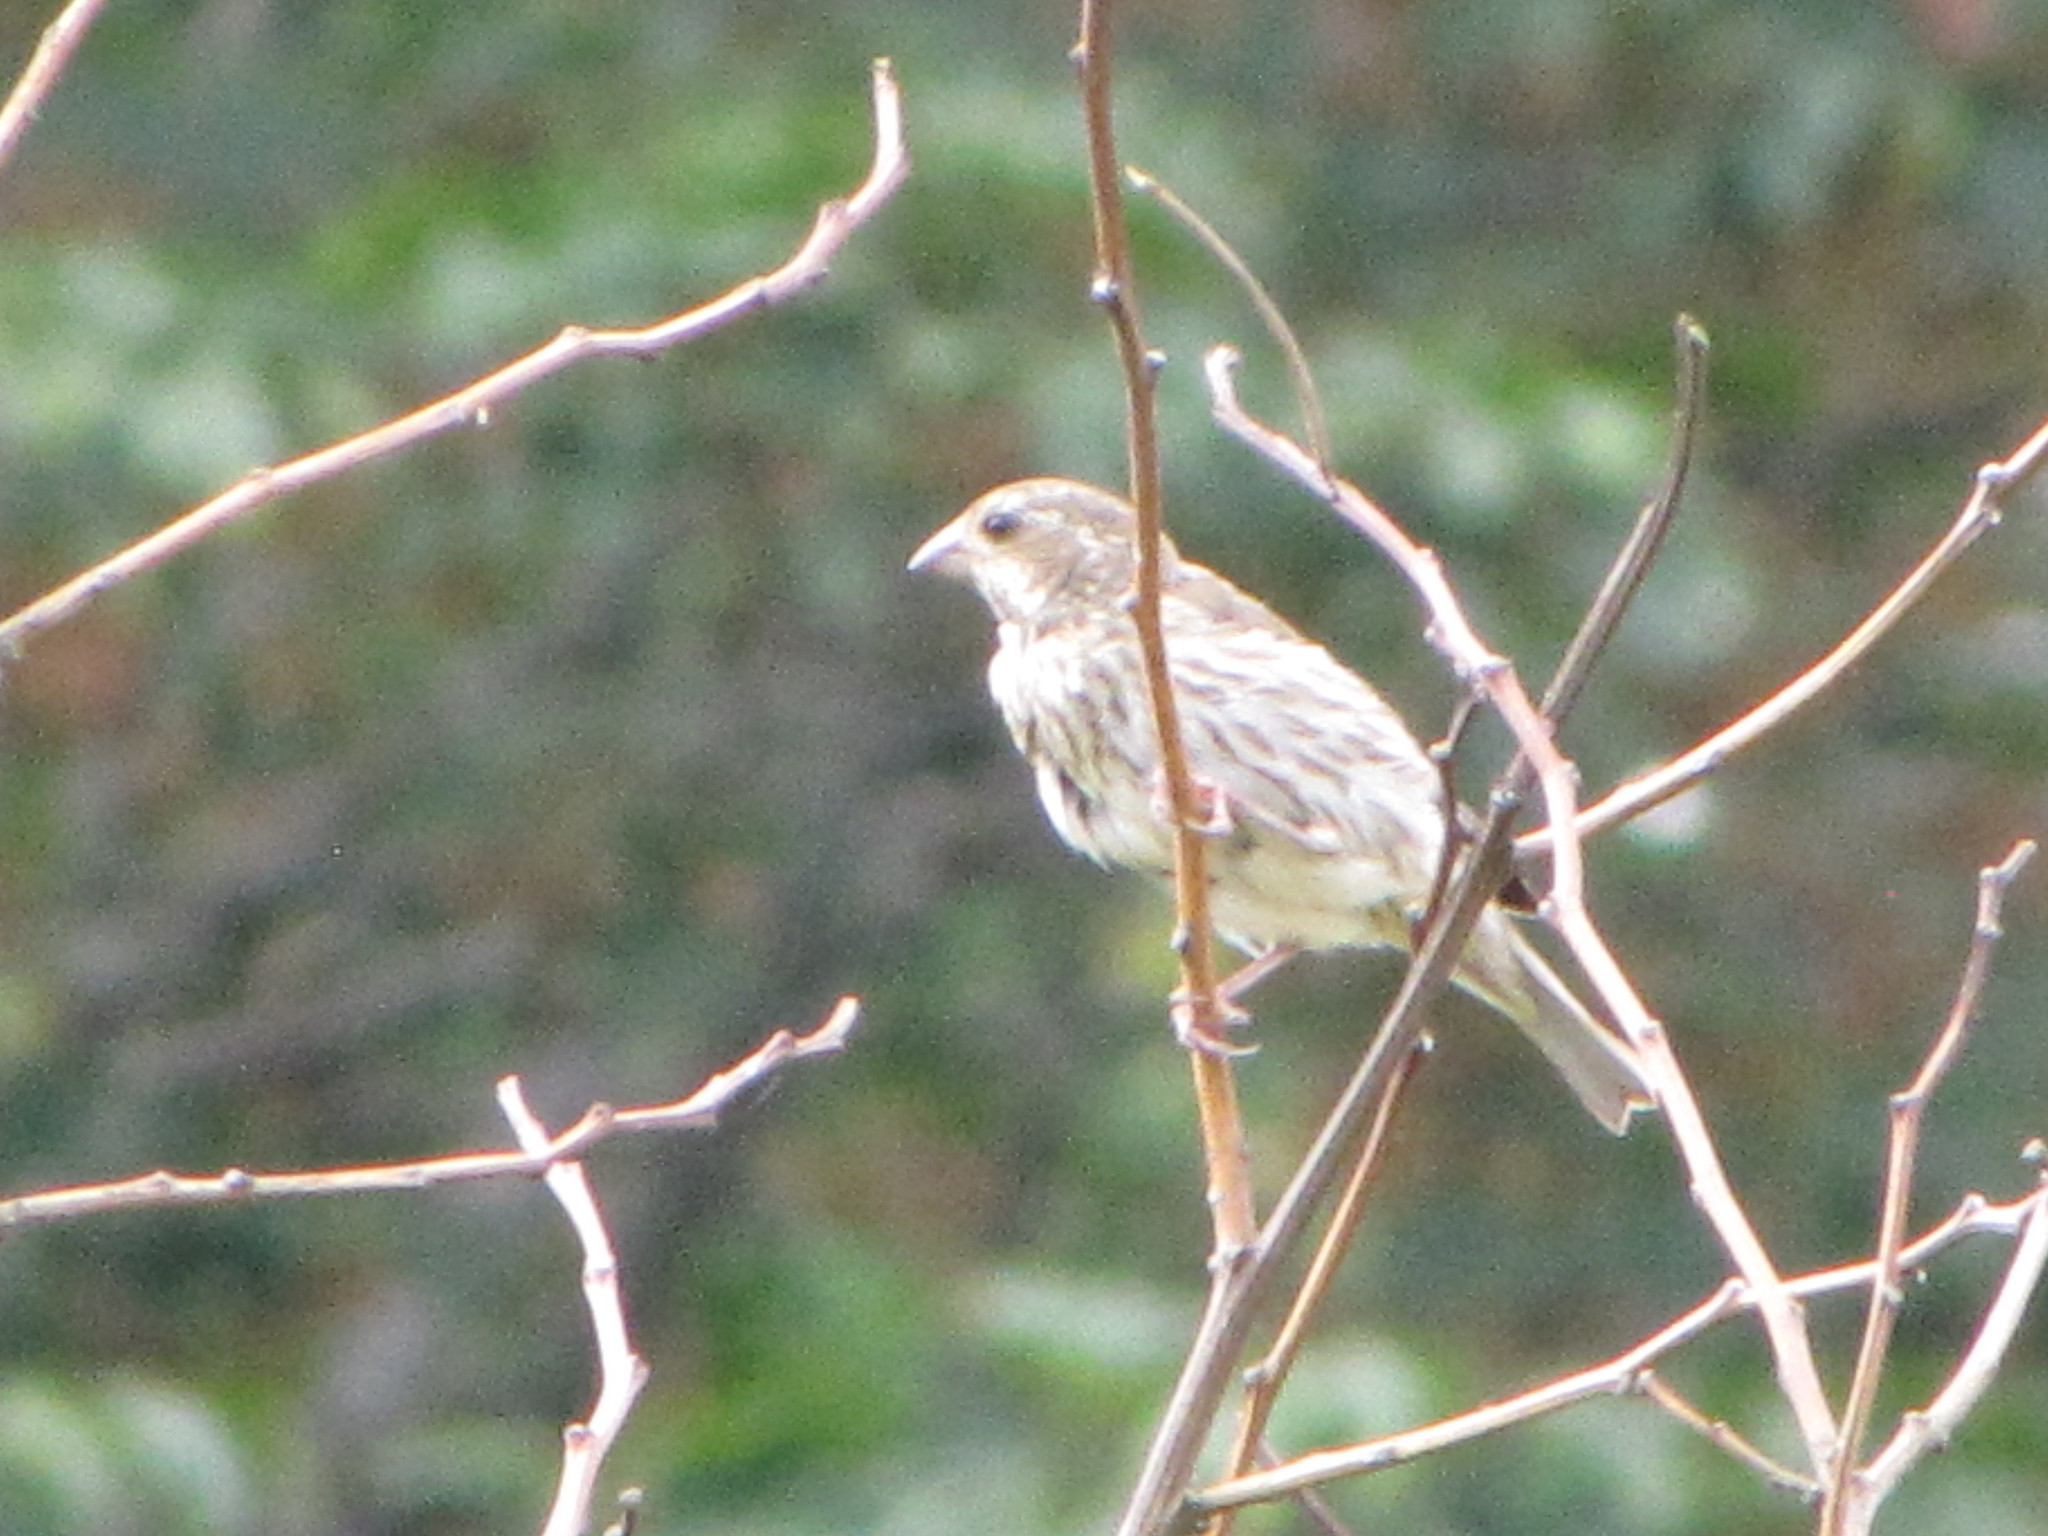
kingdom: Animalia
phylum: Chordata
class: Aves
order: Passeriformes
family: Fringillidae
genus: Haemorhous
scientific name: Haemorhous purpureus
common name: Purple finch
